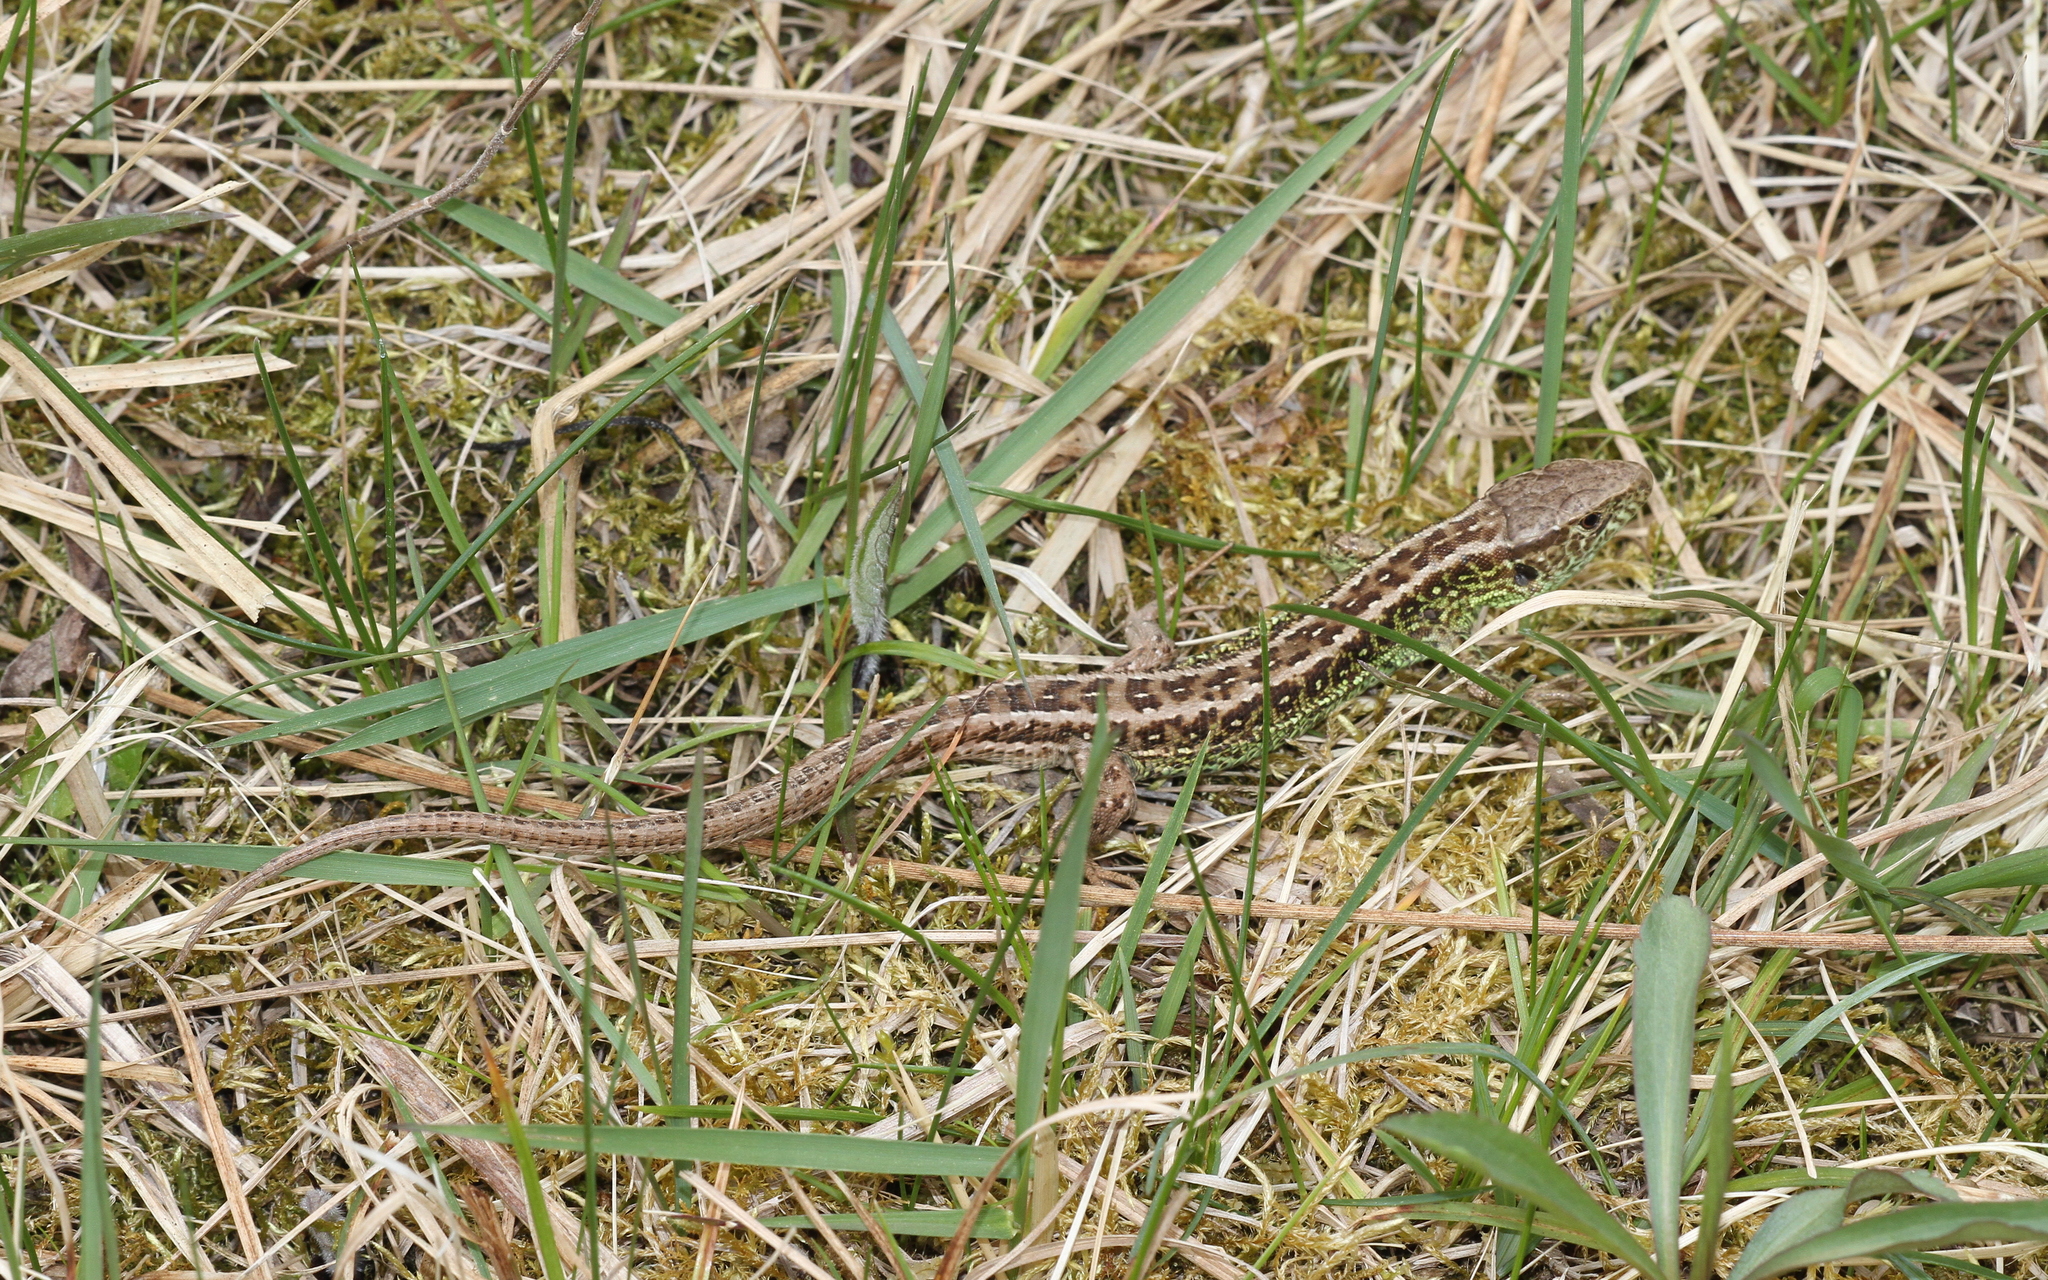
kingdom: Animalia
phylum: Chordata
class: Squamata
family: Lacertidae
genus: Lacerta
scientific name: Lacerta agilis
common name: Sand lizard
